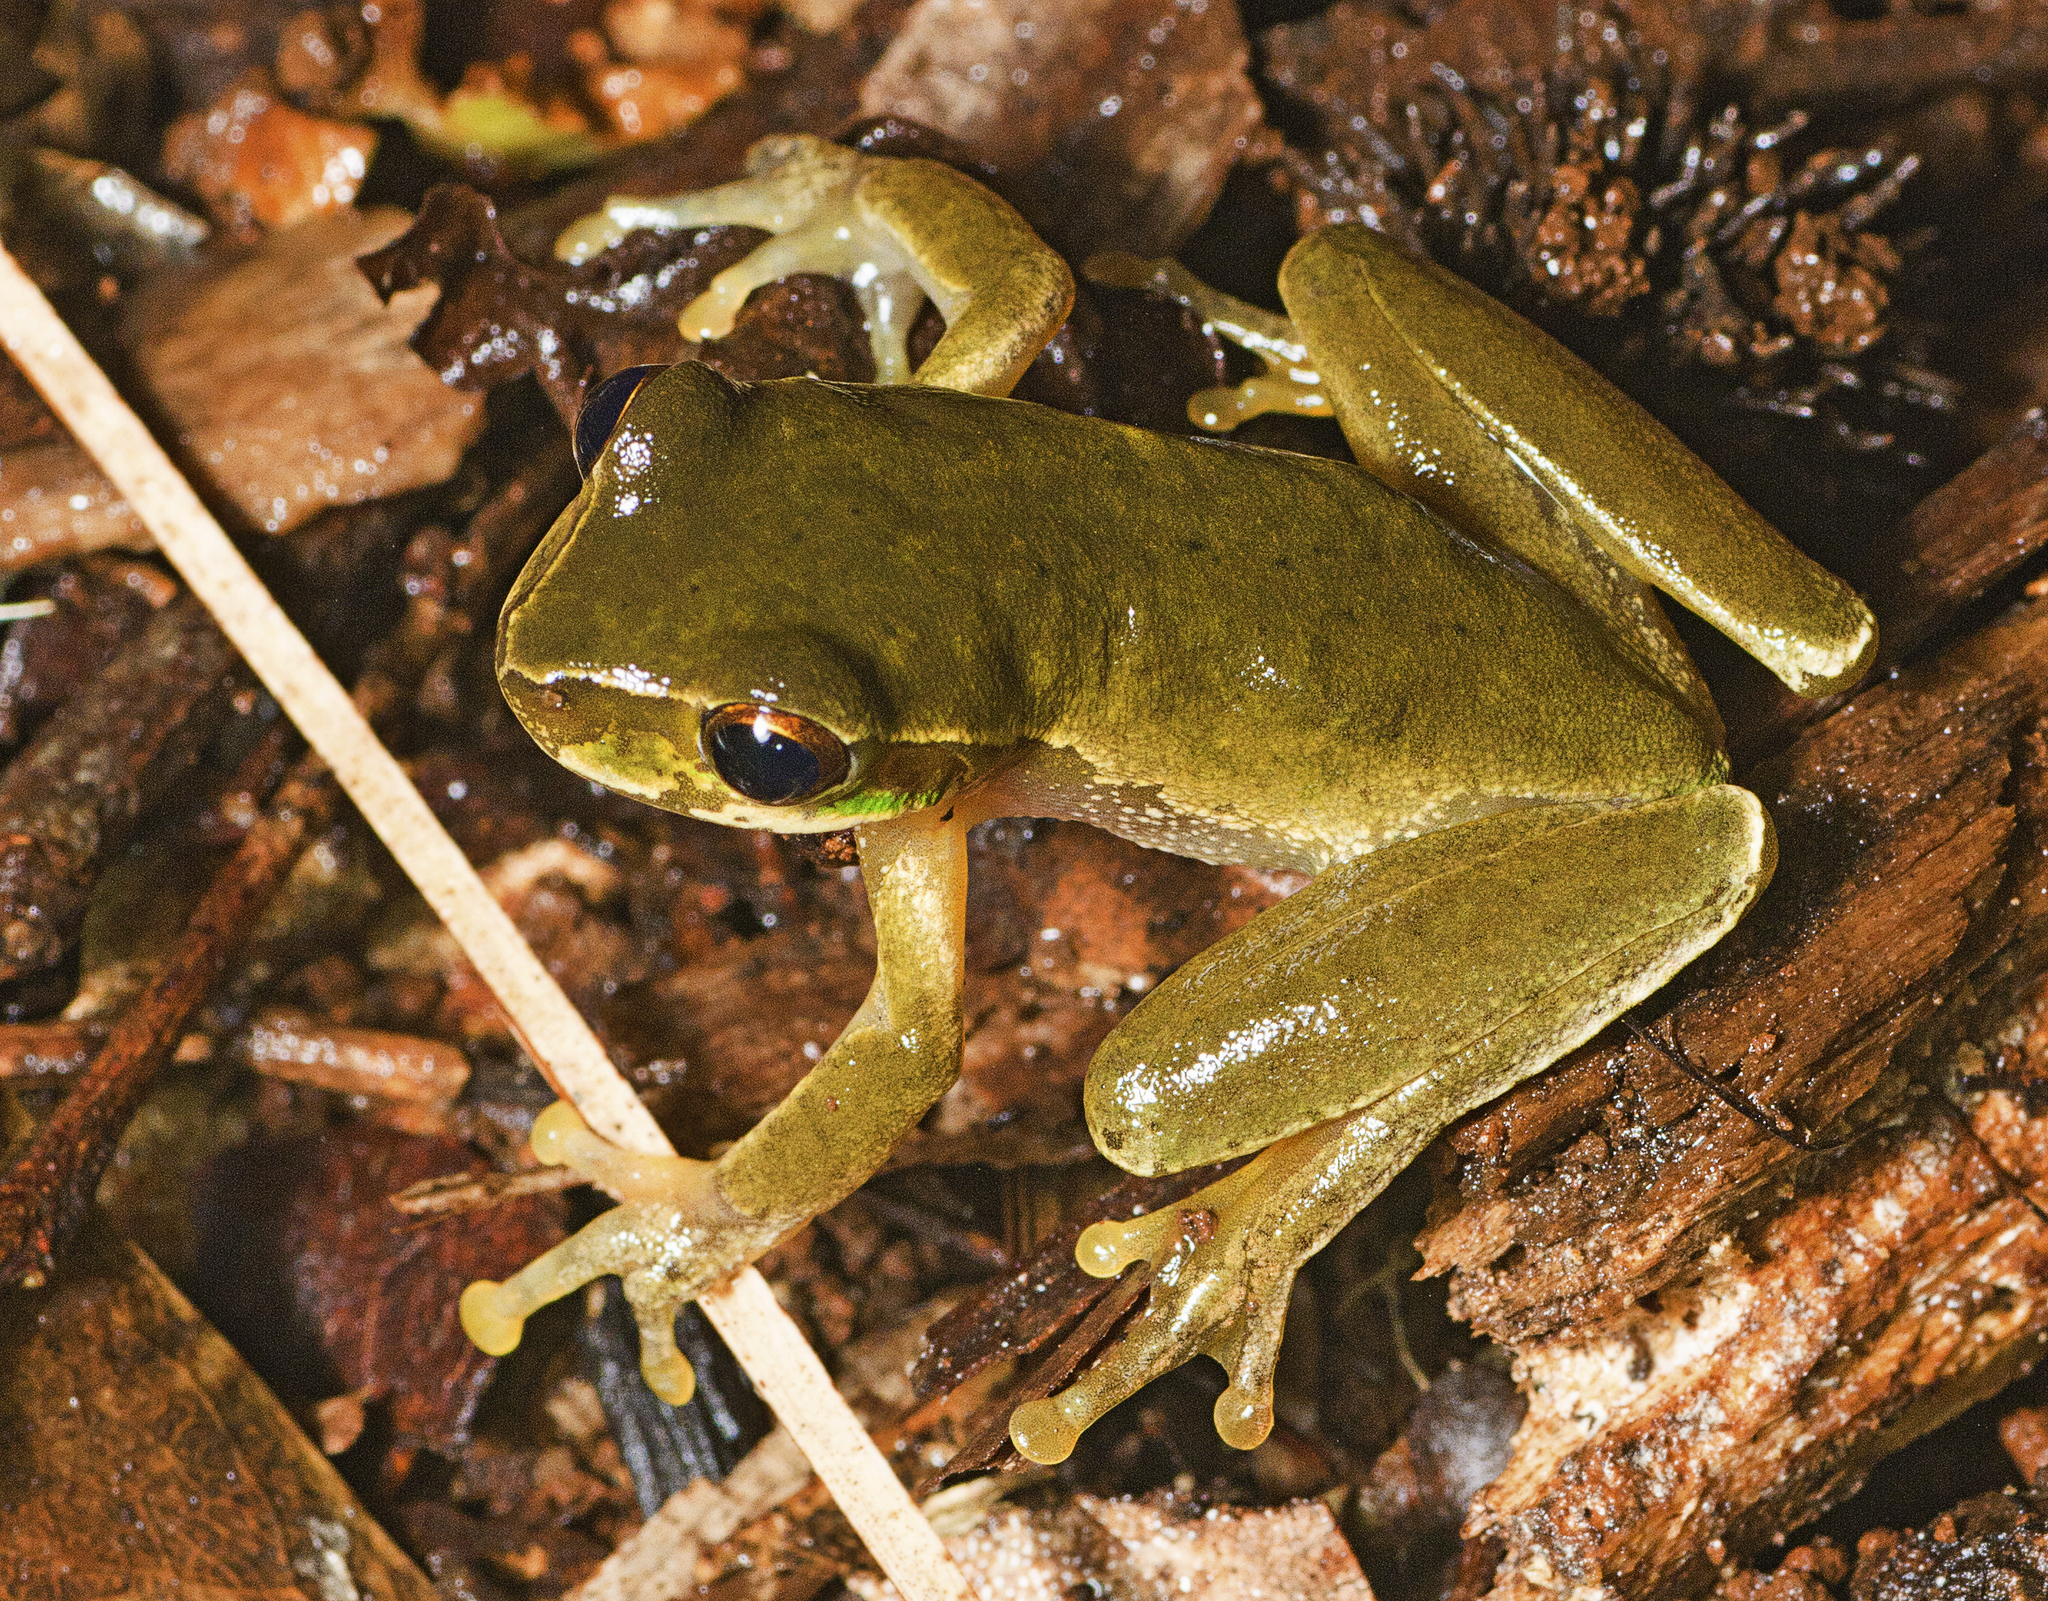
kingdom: Animalia
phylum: Chordata
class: Amphibia
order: Anura
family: Pelodryadidae
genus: Ranoidea
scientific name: Ranoidea pearsoniana
